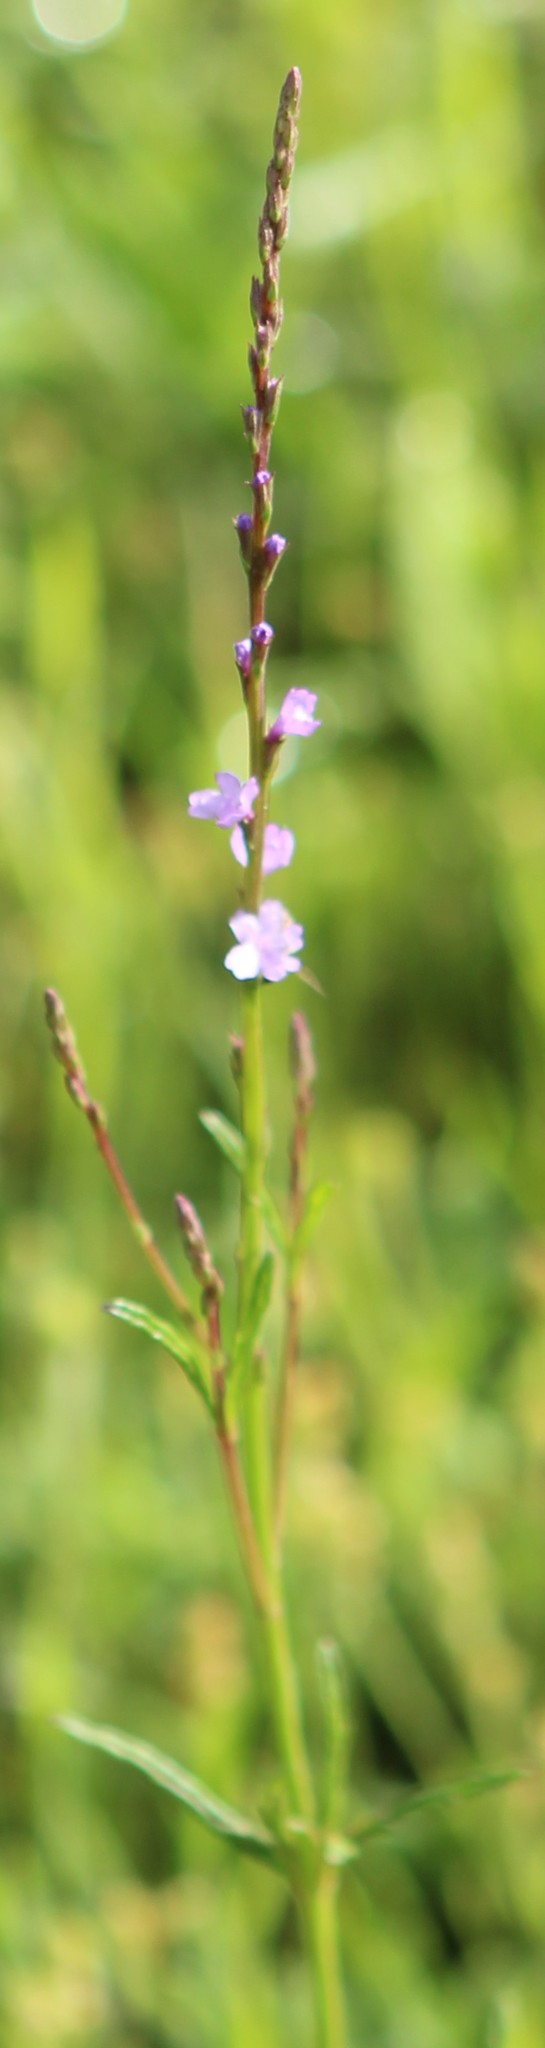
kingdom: Plantae
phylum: Tracheophyta
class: Magnoliopsida
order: Lamiales
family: Verbenaceae
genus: Verbena
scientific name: Verbena halei
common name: Texas vervain
